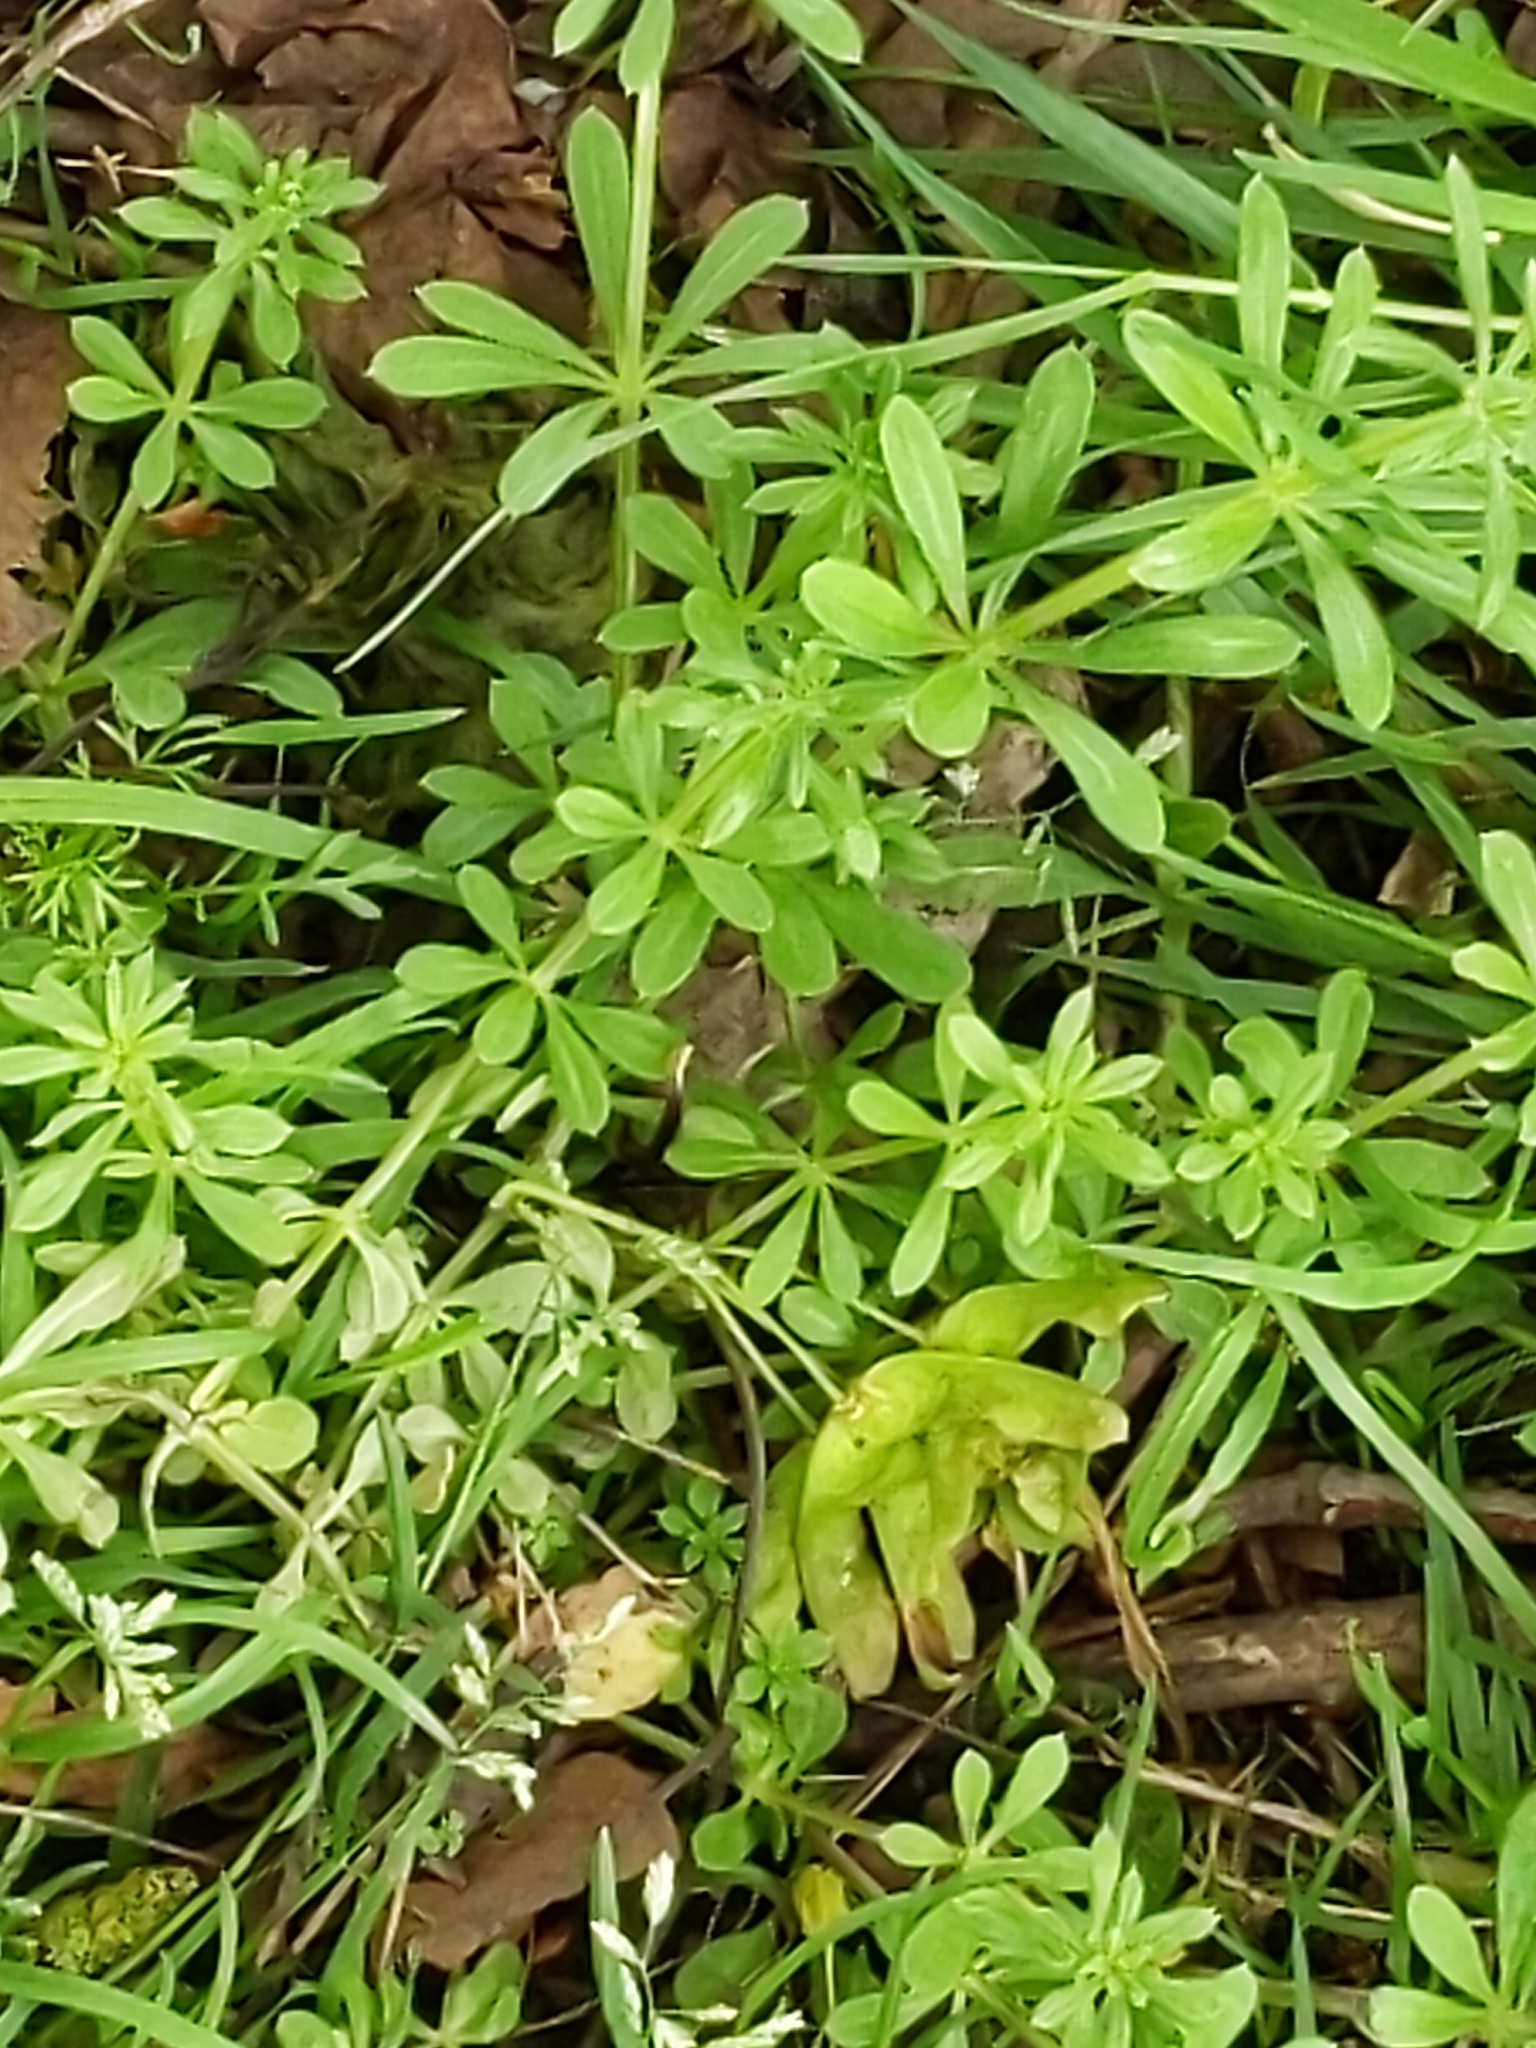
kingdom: Plantae
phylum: Tracheophyta
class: Magnoliopsida
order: Gentianales
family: Rubiaceae
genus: Galium
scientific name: Galium aparine
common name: Cleavers
